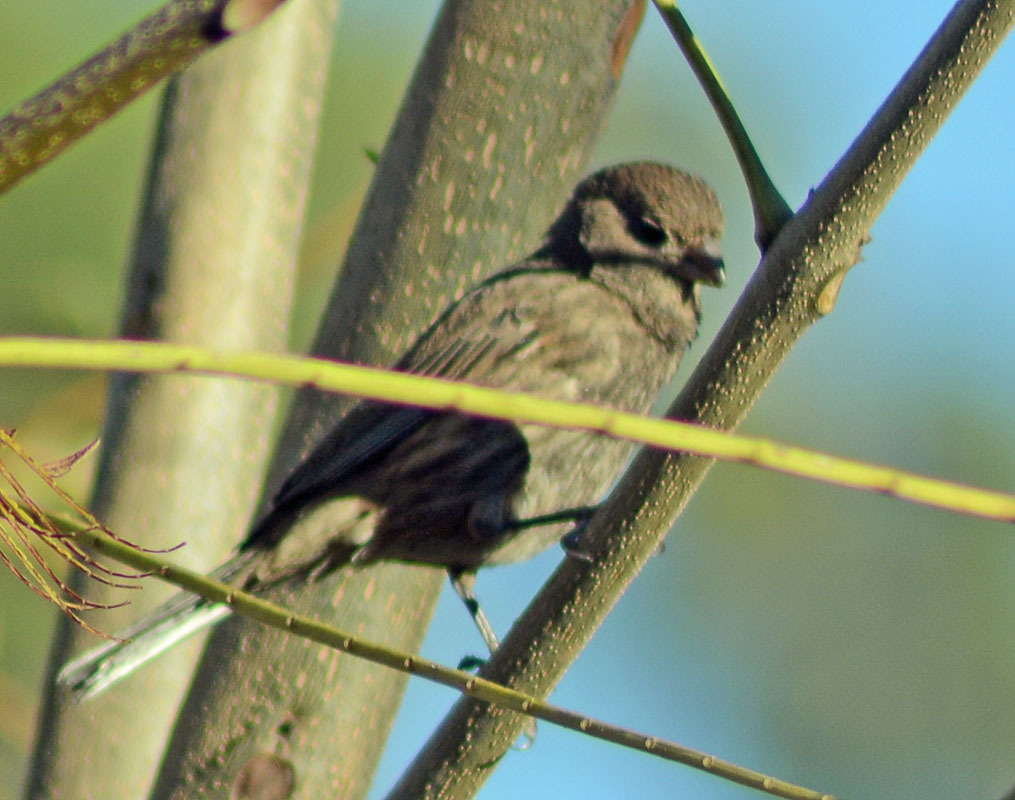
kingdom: Animalia
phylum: Chordata
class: Aves
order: Passeriformes
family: Fringillidae
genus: Haemorhous
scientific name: Haemorhous mexicanus
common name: House finch
